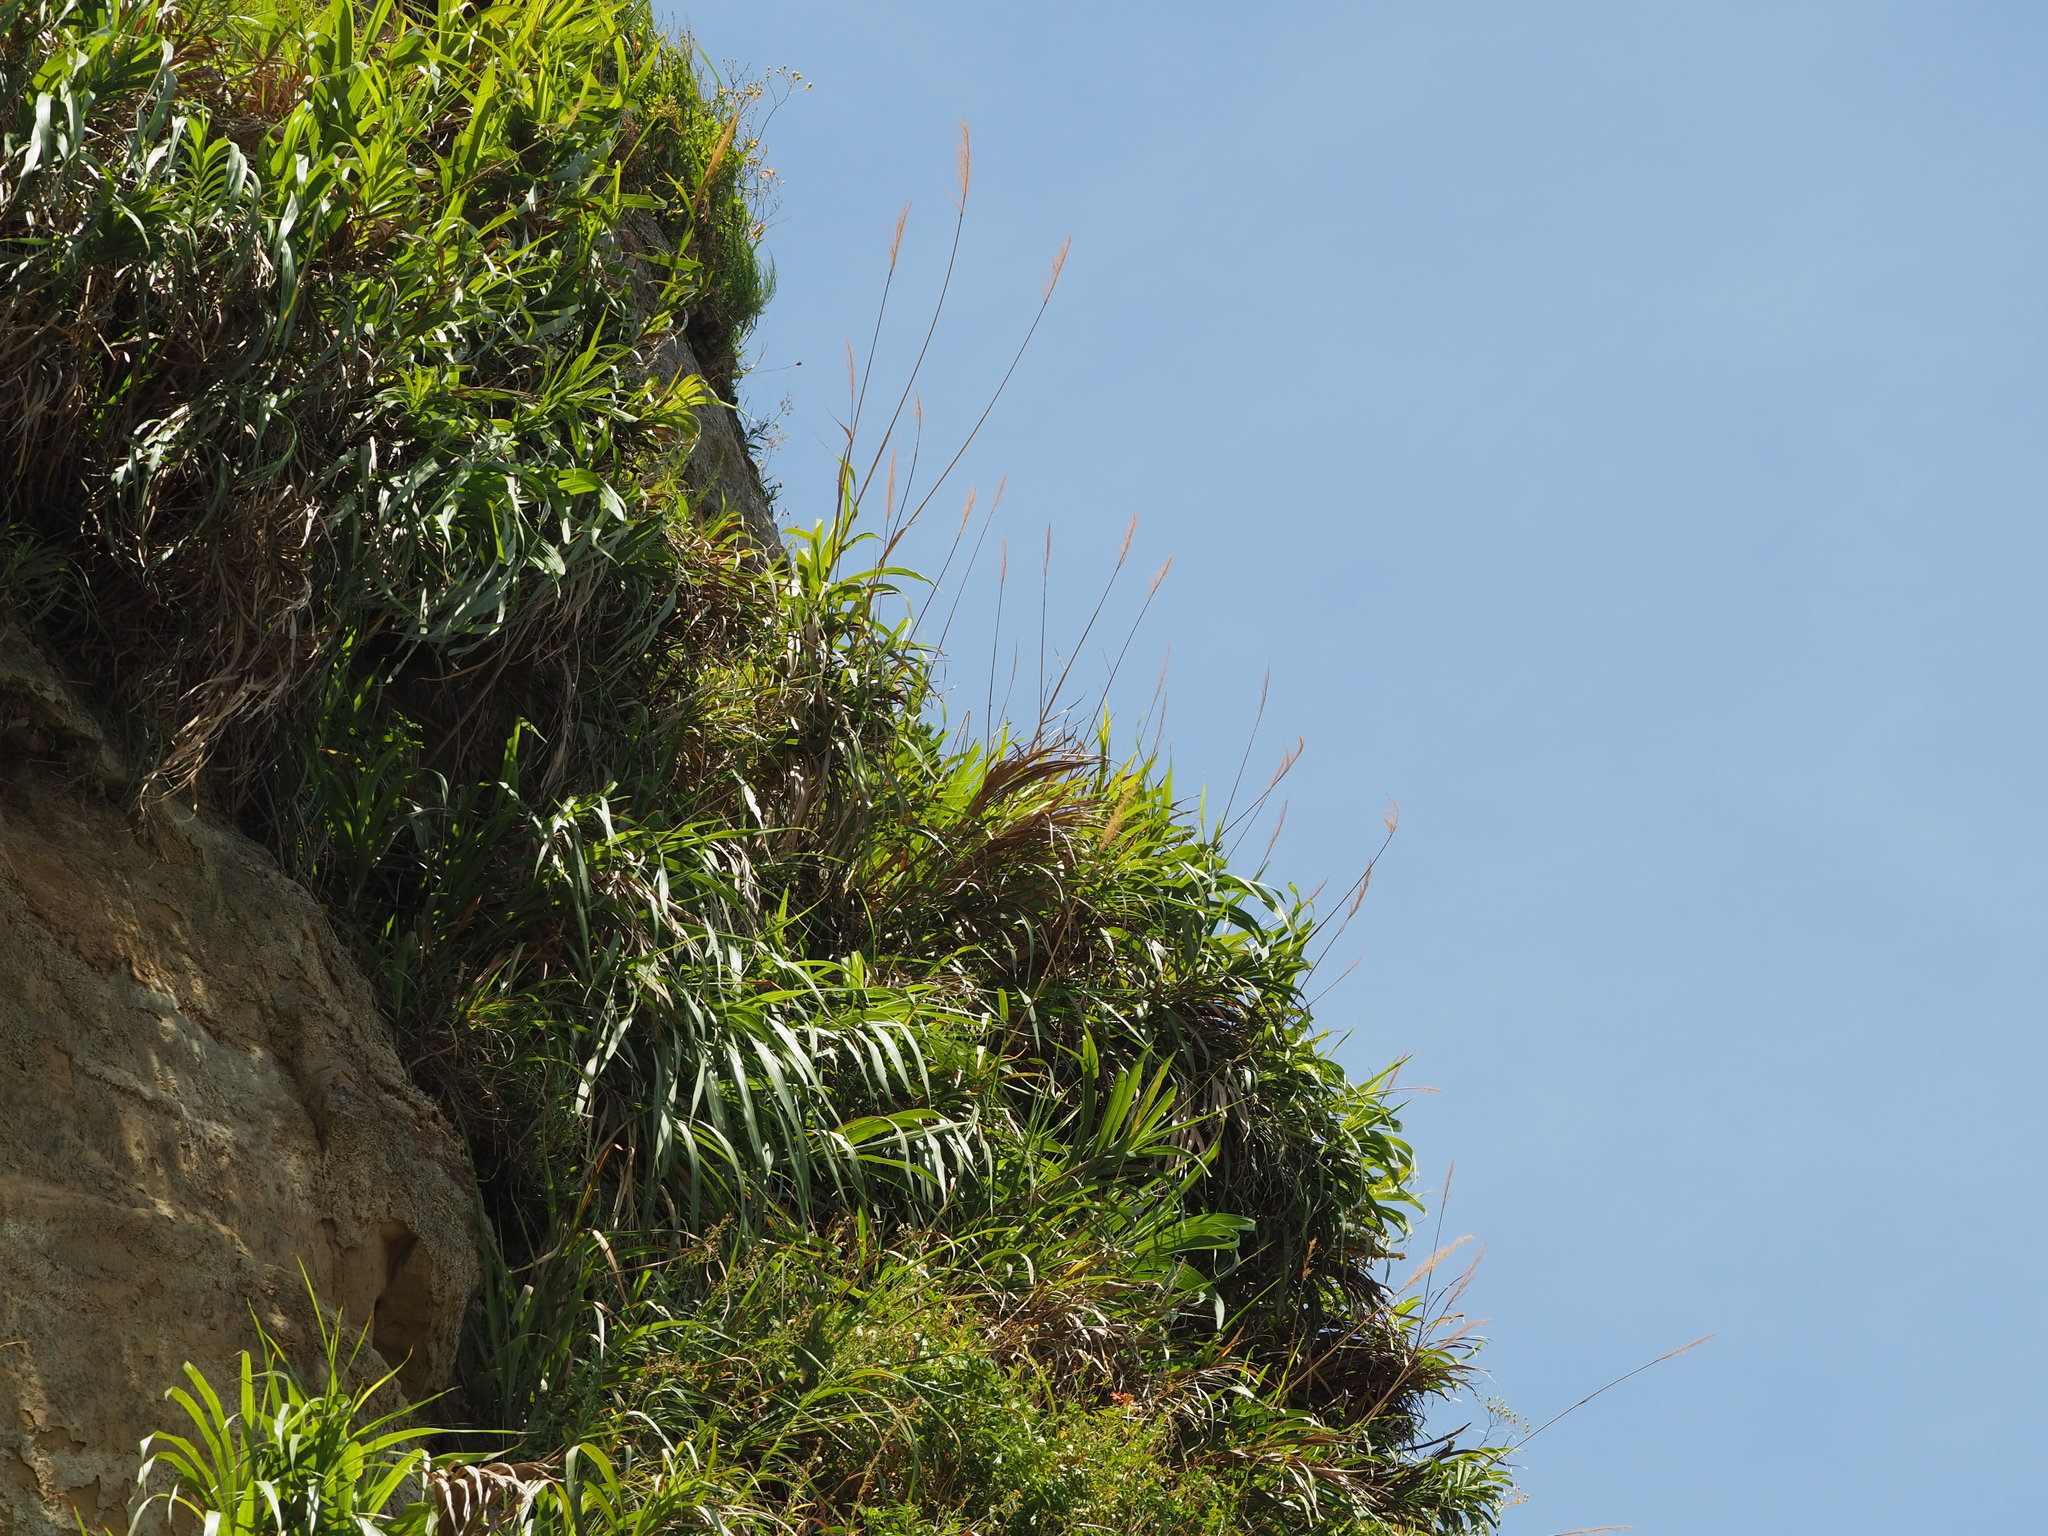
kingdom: Plantae
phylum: Tracheophyta
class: Liliopsida
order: Poales
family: Poaceae
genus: Miscanthus
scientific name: Miscanthus floridulus
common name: Pacific island silvergrass
